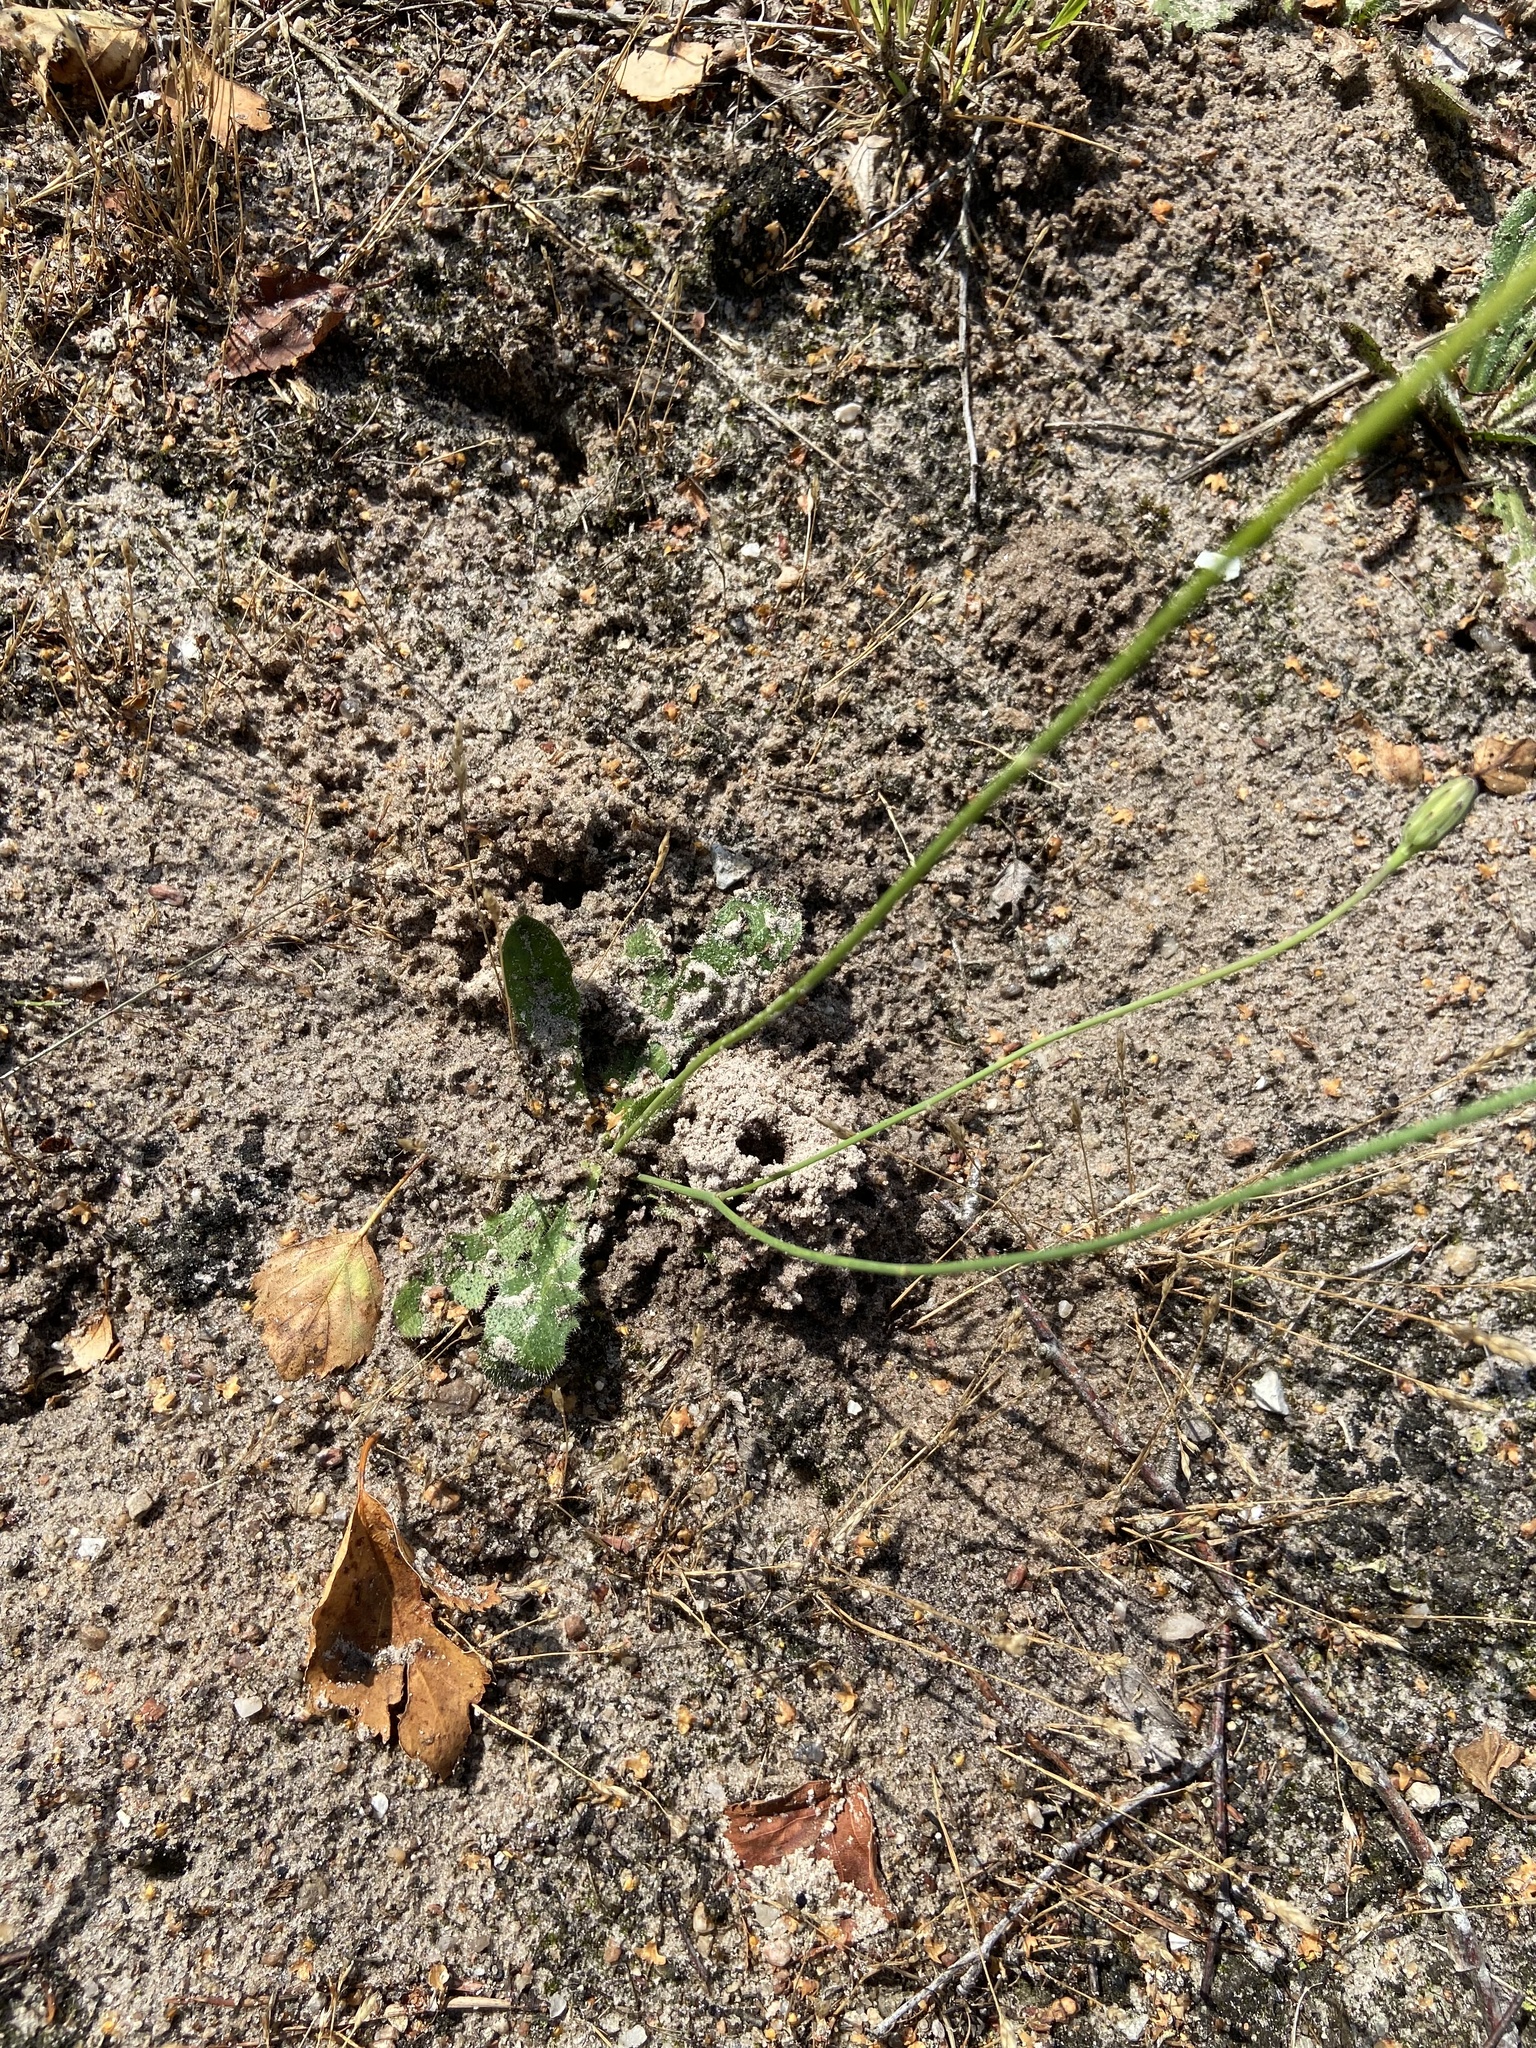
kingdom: Animalia
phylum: Arthropoda
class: Insecta
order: Hymenoptera
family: Melittidae
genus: Dasypoda
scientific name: Dasypoda hirtipes
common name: Pantaloon bee
